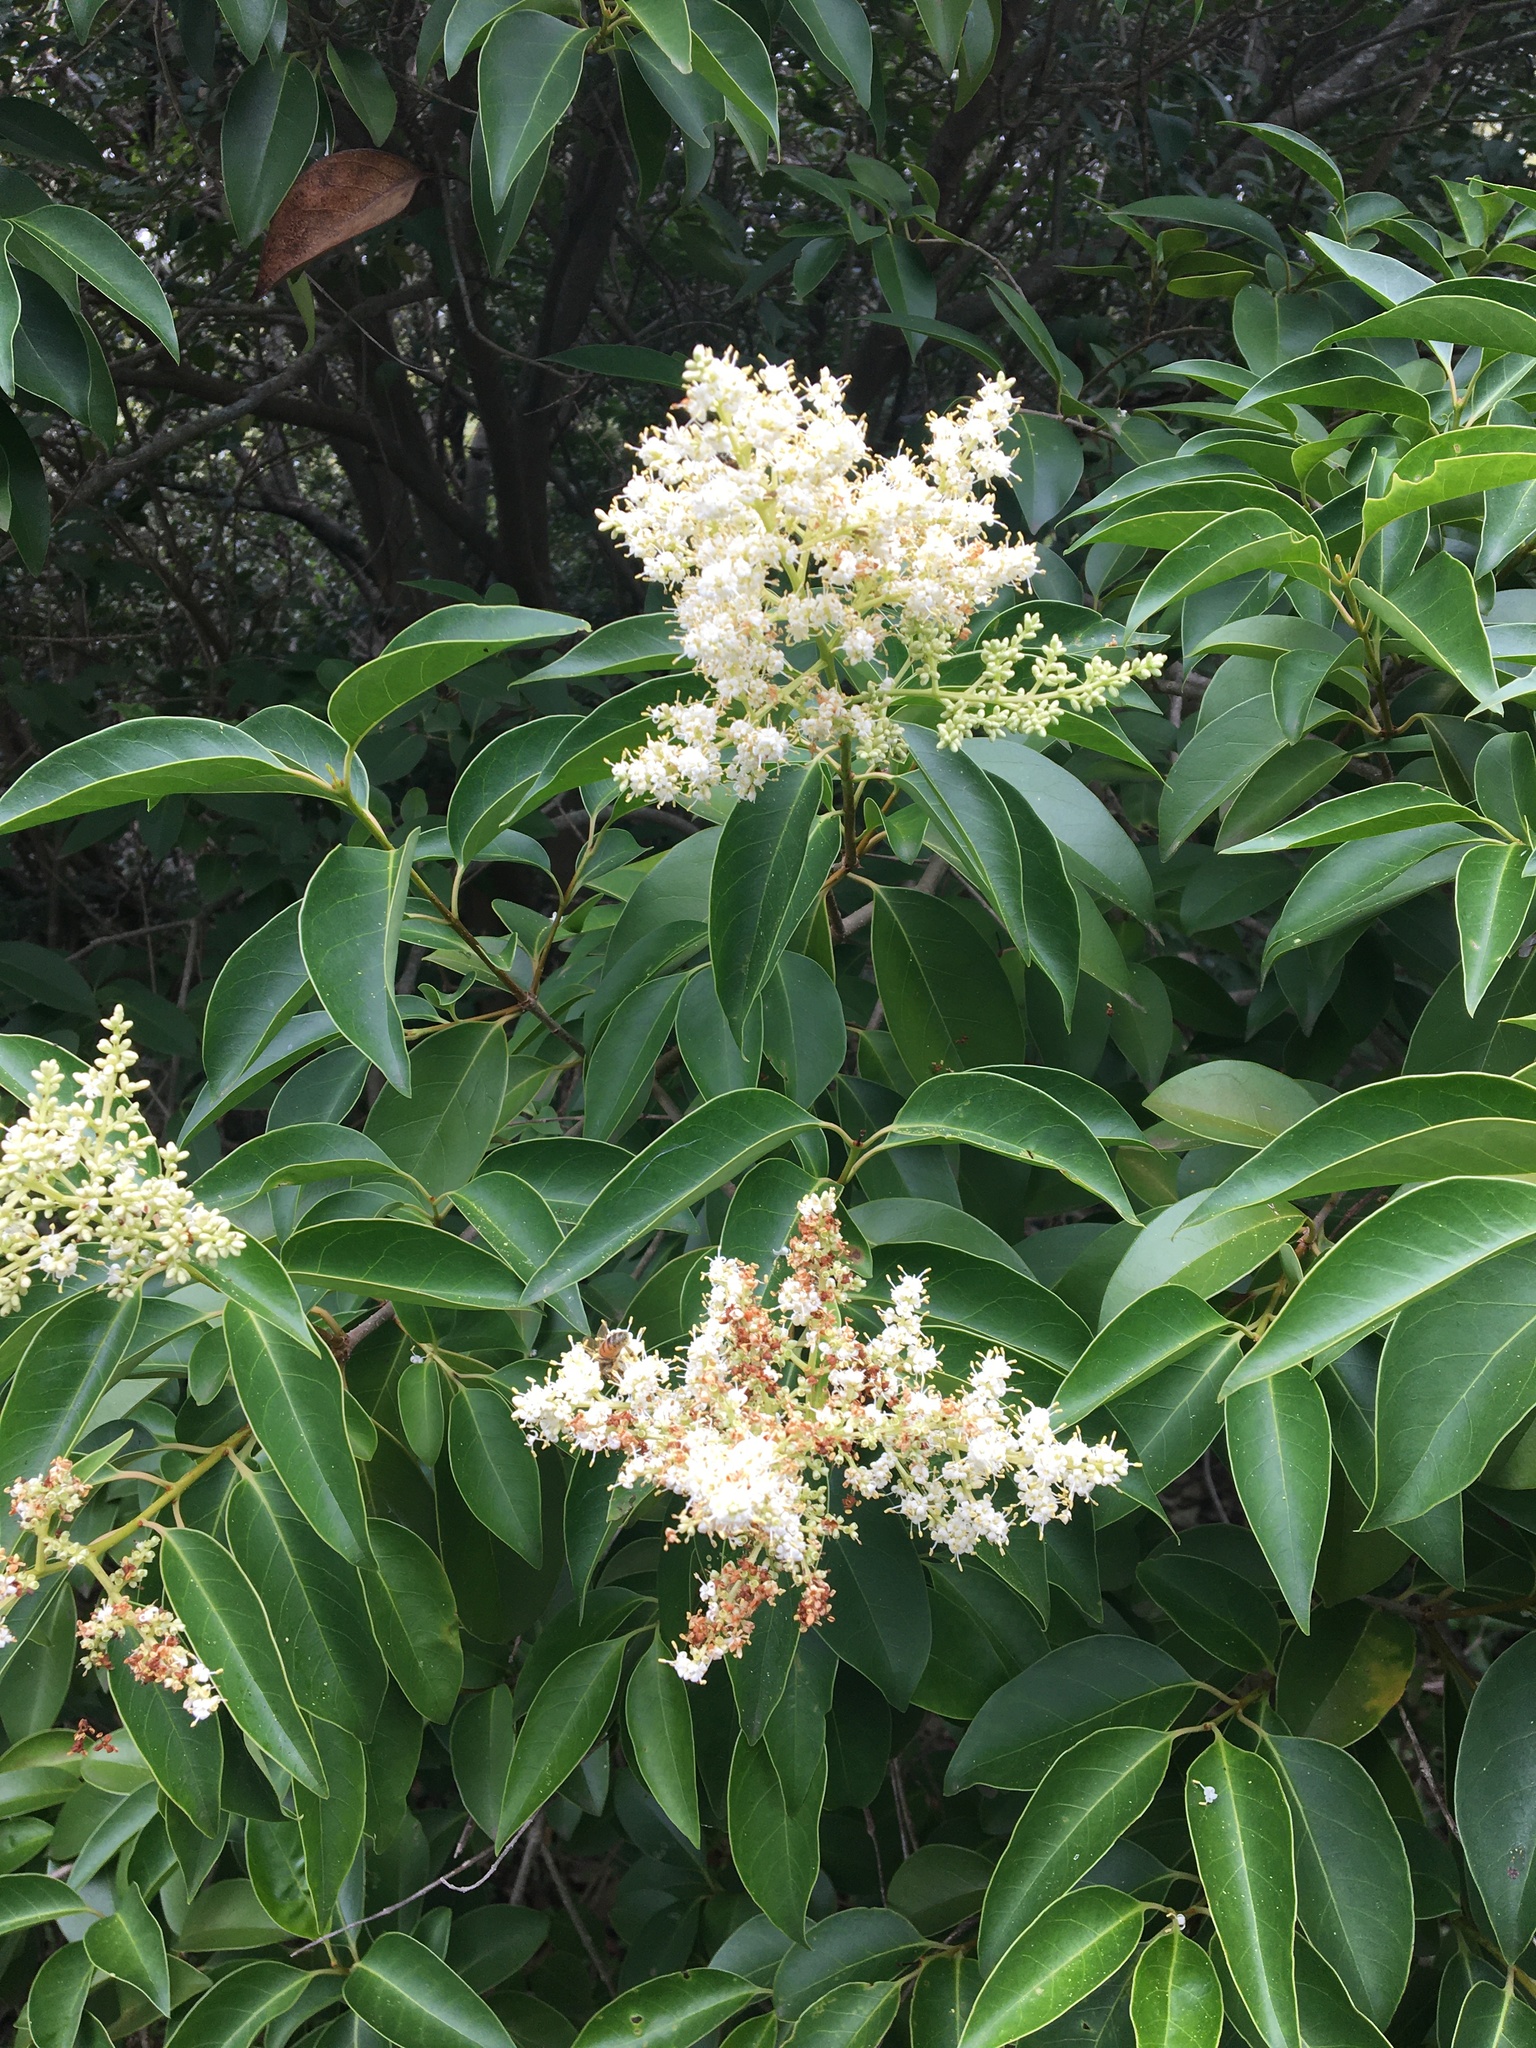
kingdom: Plantae
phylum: Tracheophyta
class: Magnoliopsida
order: Lamiales
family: Oleaceae
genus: Ligustrum
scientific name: Ligustrum lucidum
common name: Glossy privet
